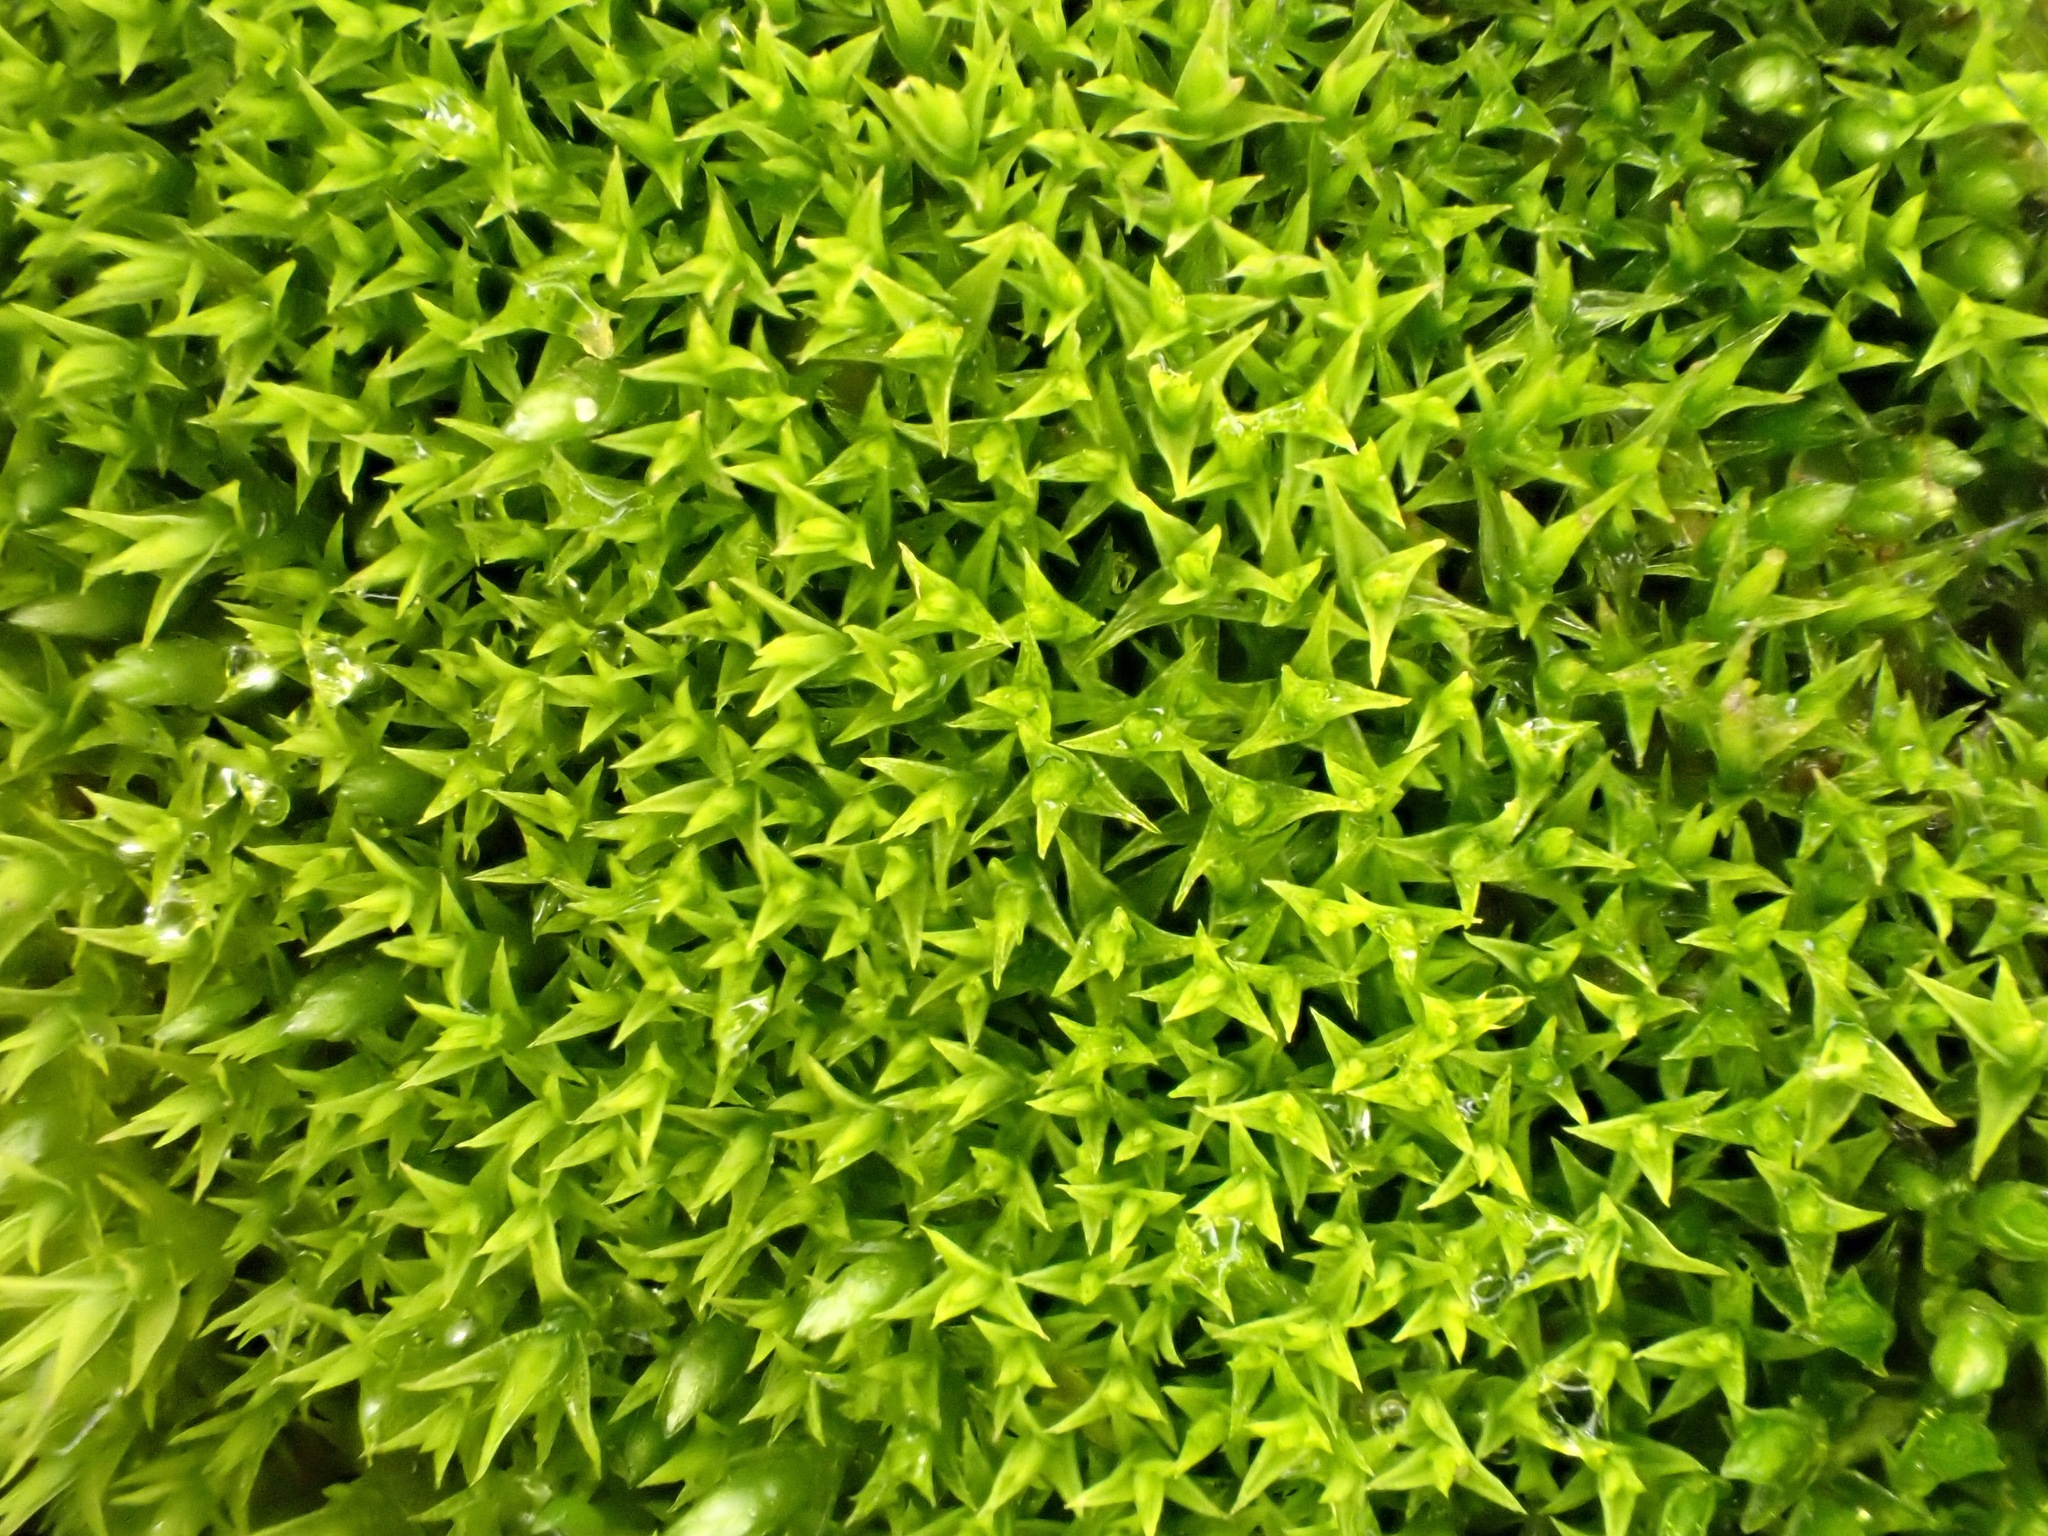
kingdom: Plantae
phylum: Bryophyta
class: Bryopsida
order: Dicranales
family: Ditrichaceae
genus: Ceratodon
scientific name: Ceratodon purpureus
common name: Redshank
